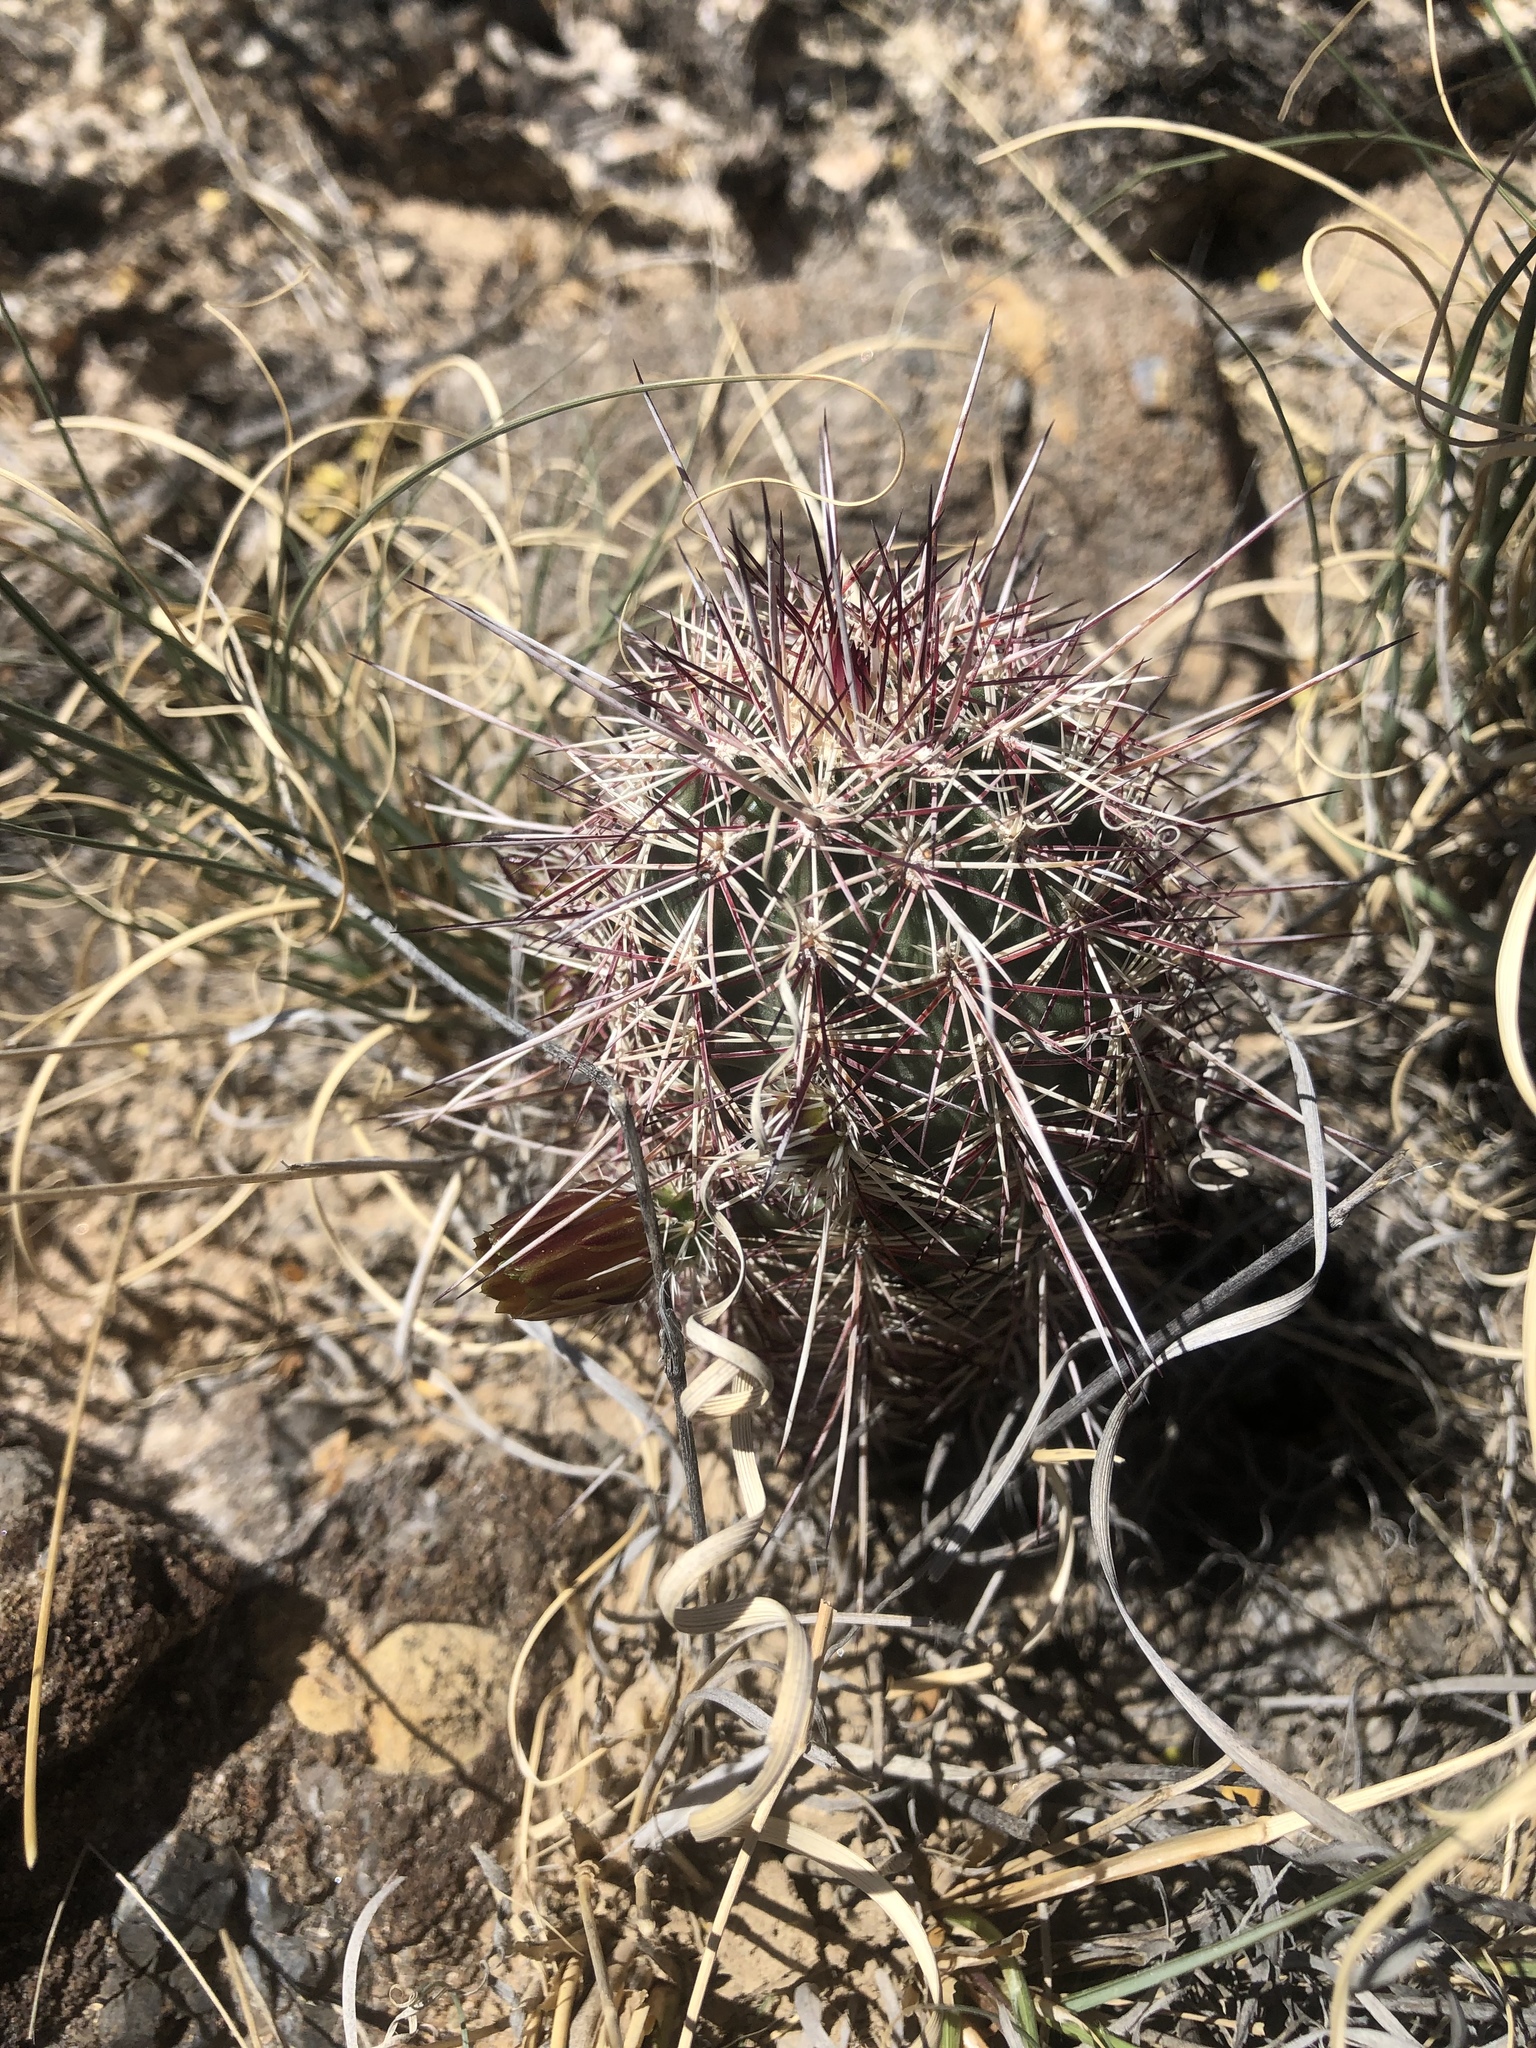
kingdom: Plantae
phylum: Tracheophyta
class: Magnoliopsida
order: Caryophyllales
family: Cactaceae
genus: Echinocereus
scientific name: Echinocereus viridiflorus
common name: Nylon hedgehog cactus
